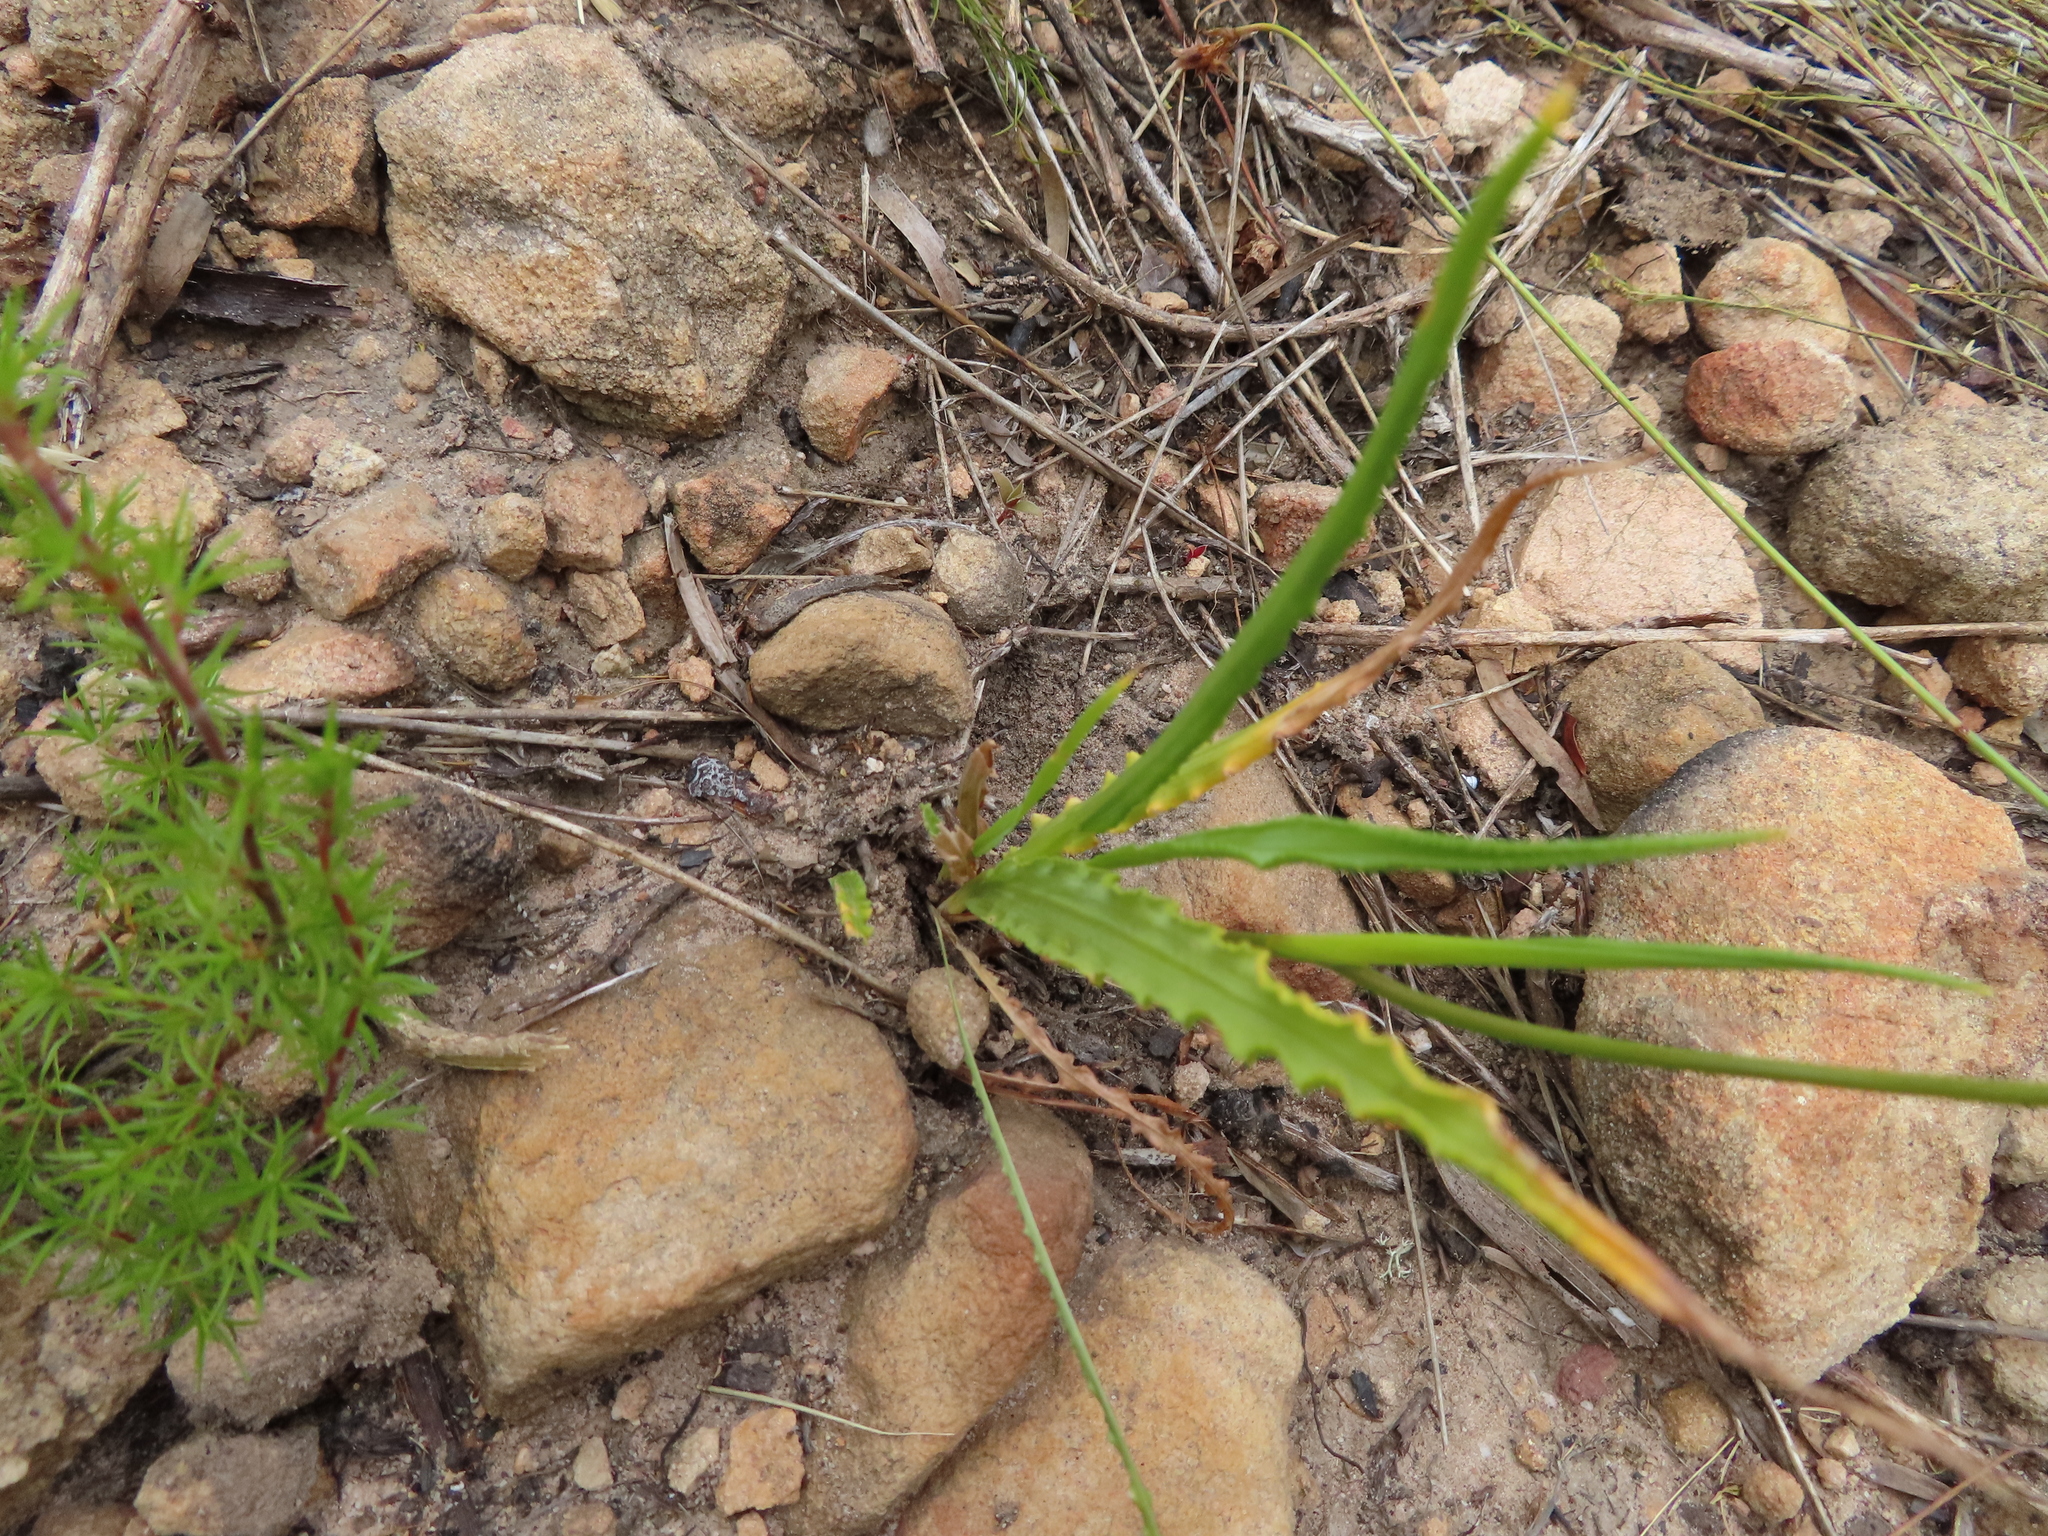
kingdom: Plantae
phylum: Tracheophyta
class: Liliopsida
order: Asparagales
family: Iridaceae
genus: Tritonia
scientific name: Tritonia undulata
